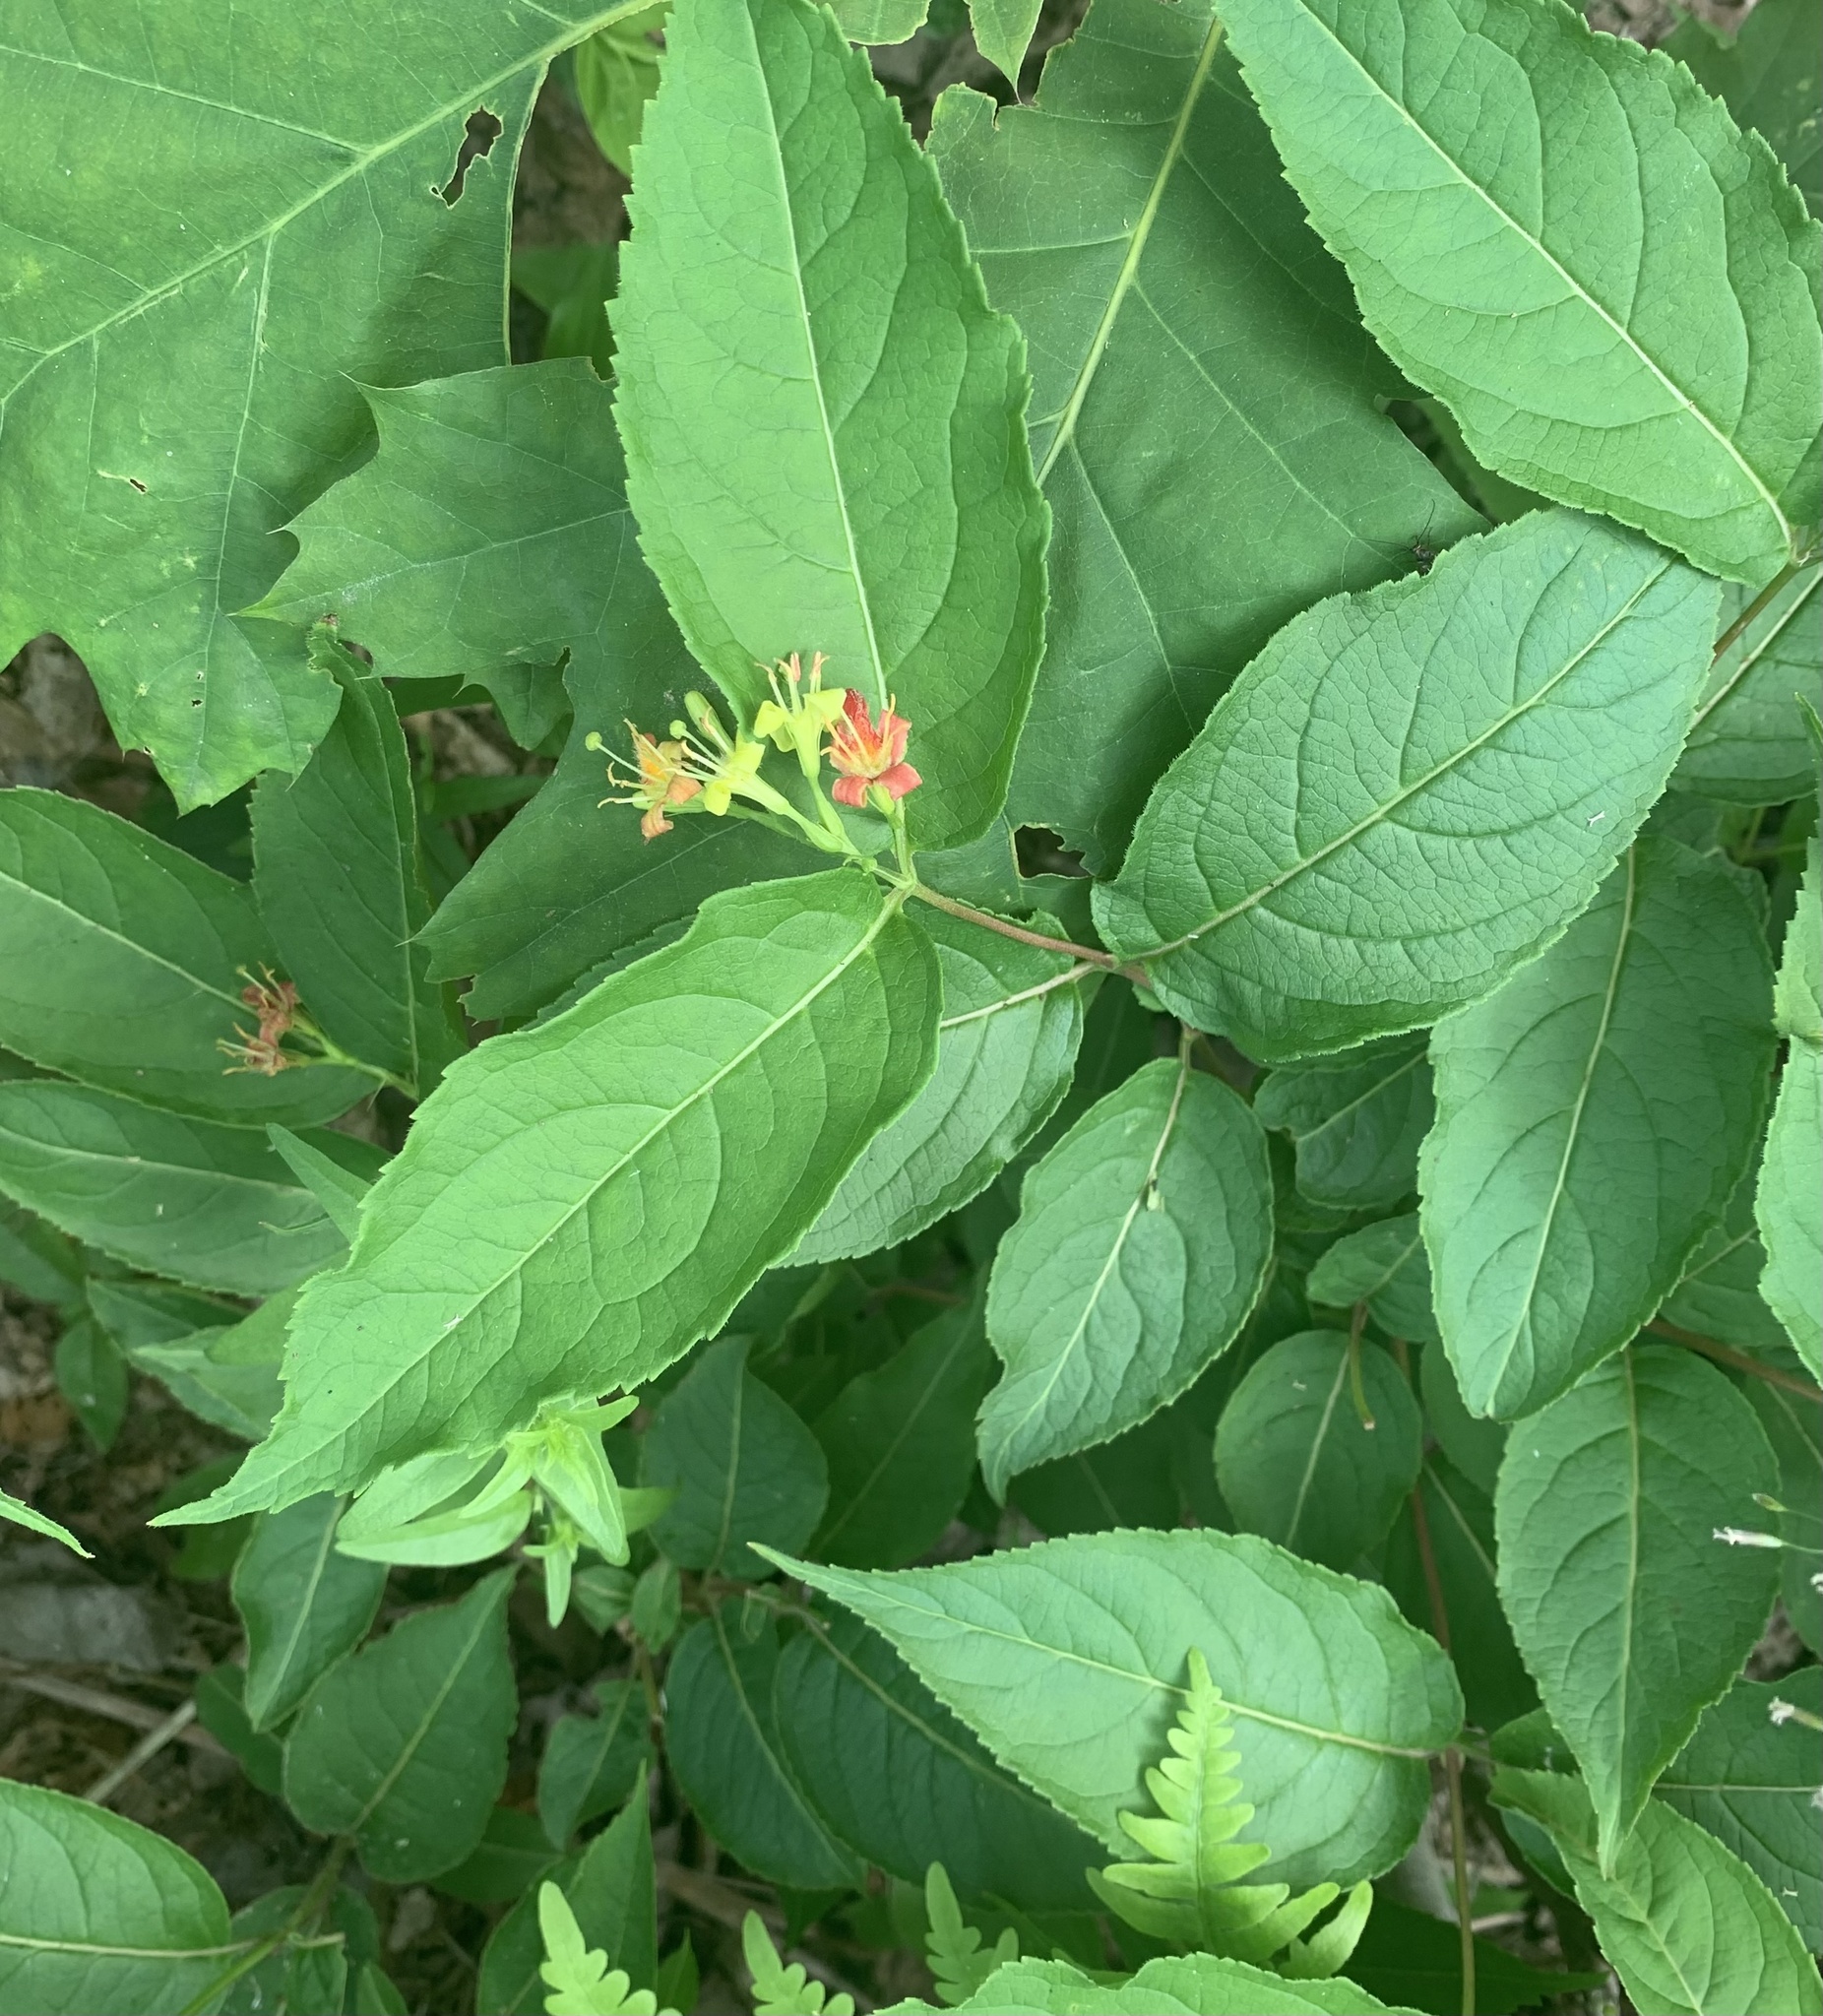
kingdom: Plantae
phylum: Tracheophyta
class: Magnoliopsida
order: Dipsacales
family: Caprifoliaceae
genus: Diervilla
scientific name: Diervilla lonicera
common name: Bush-honeysuckle
